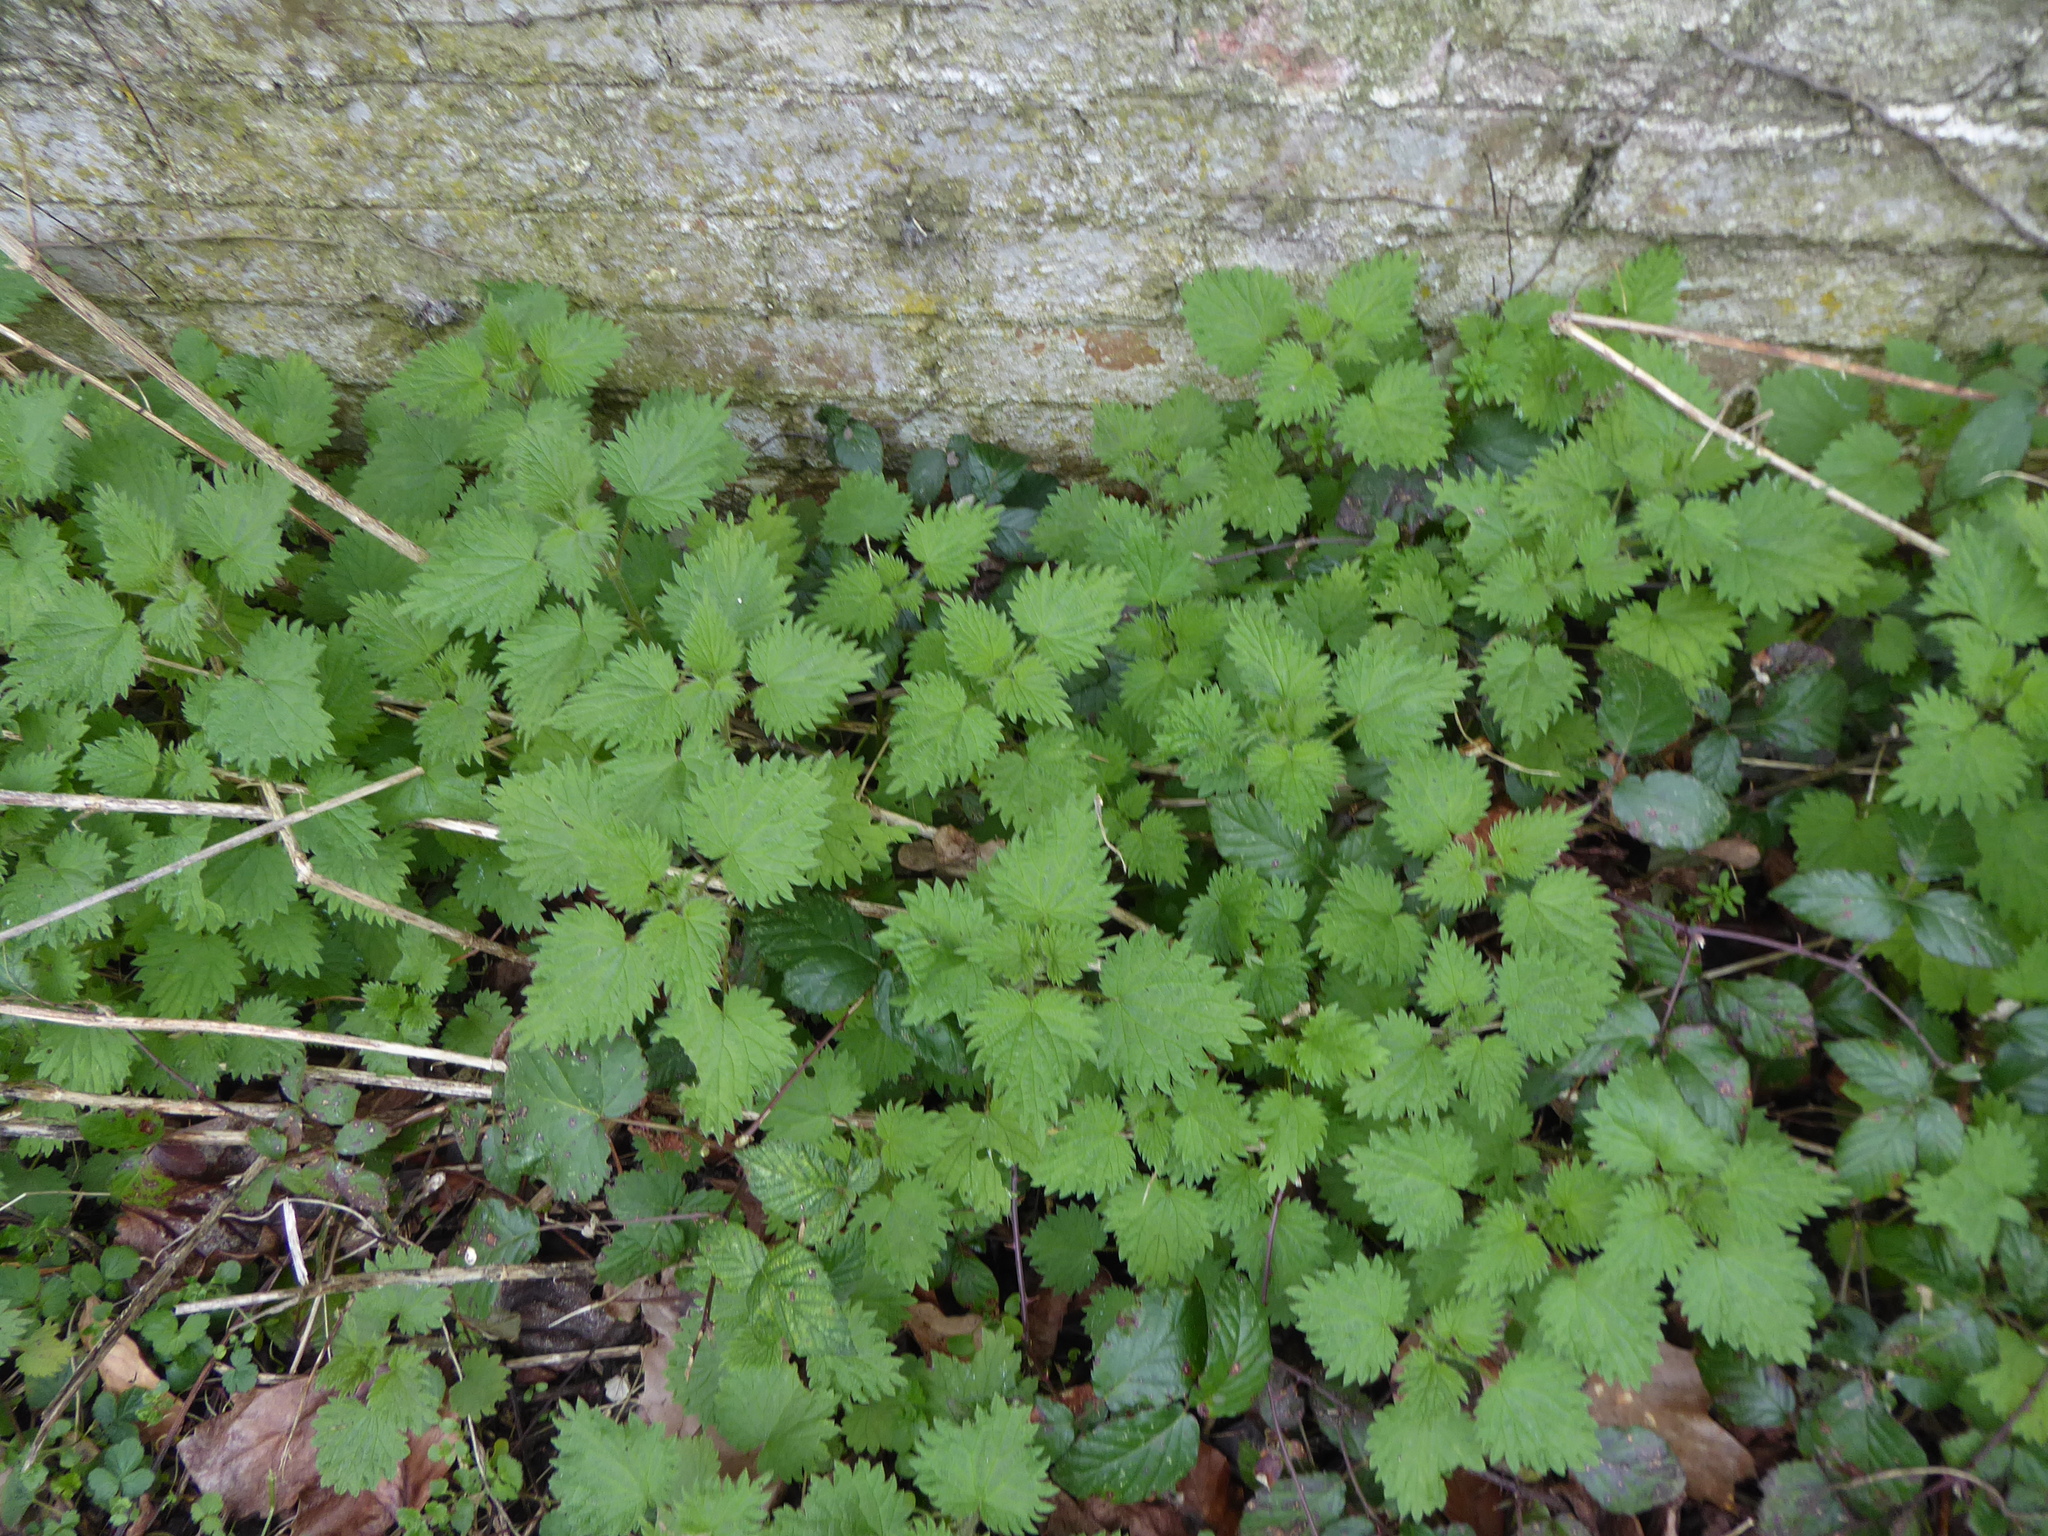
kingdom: Plantae
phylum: Tracheophyta
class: Magnoliopsida
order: Rosales
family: Urticaceae
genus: Urtica
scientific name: Urtica dioica
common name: Common nettle
